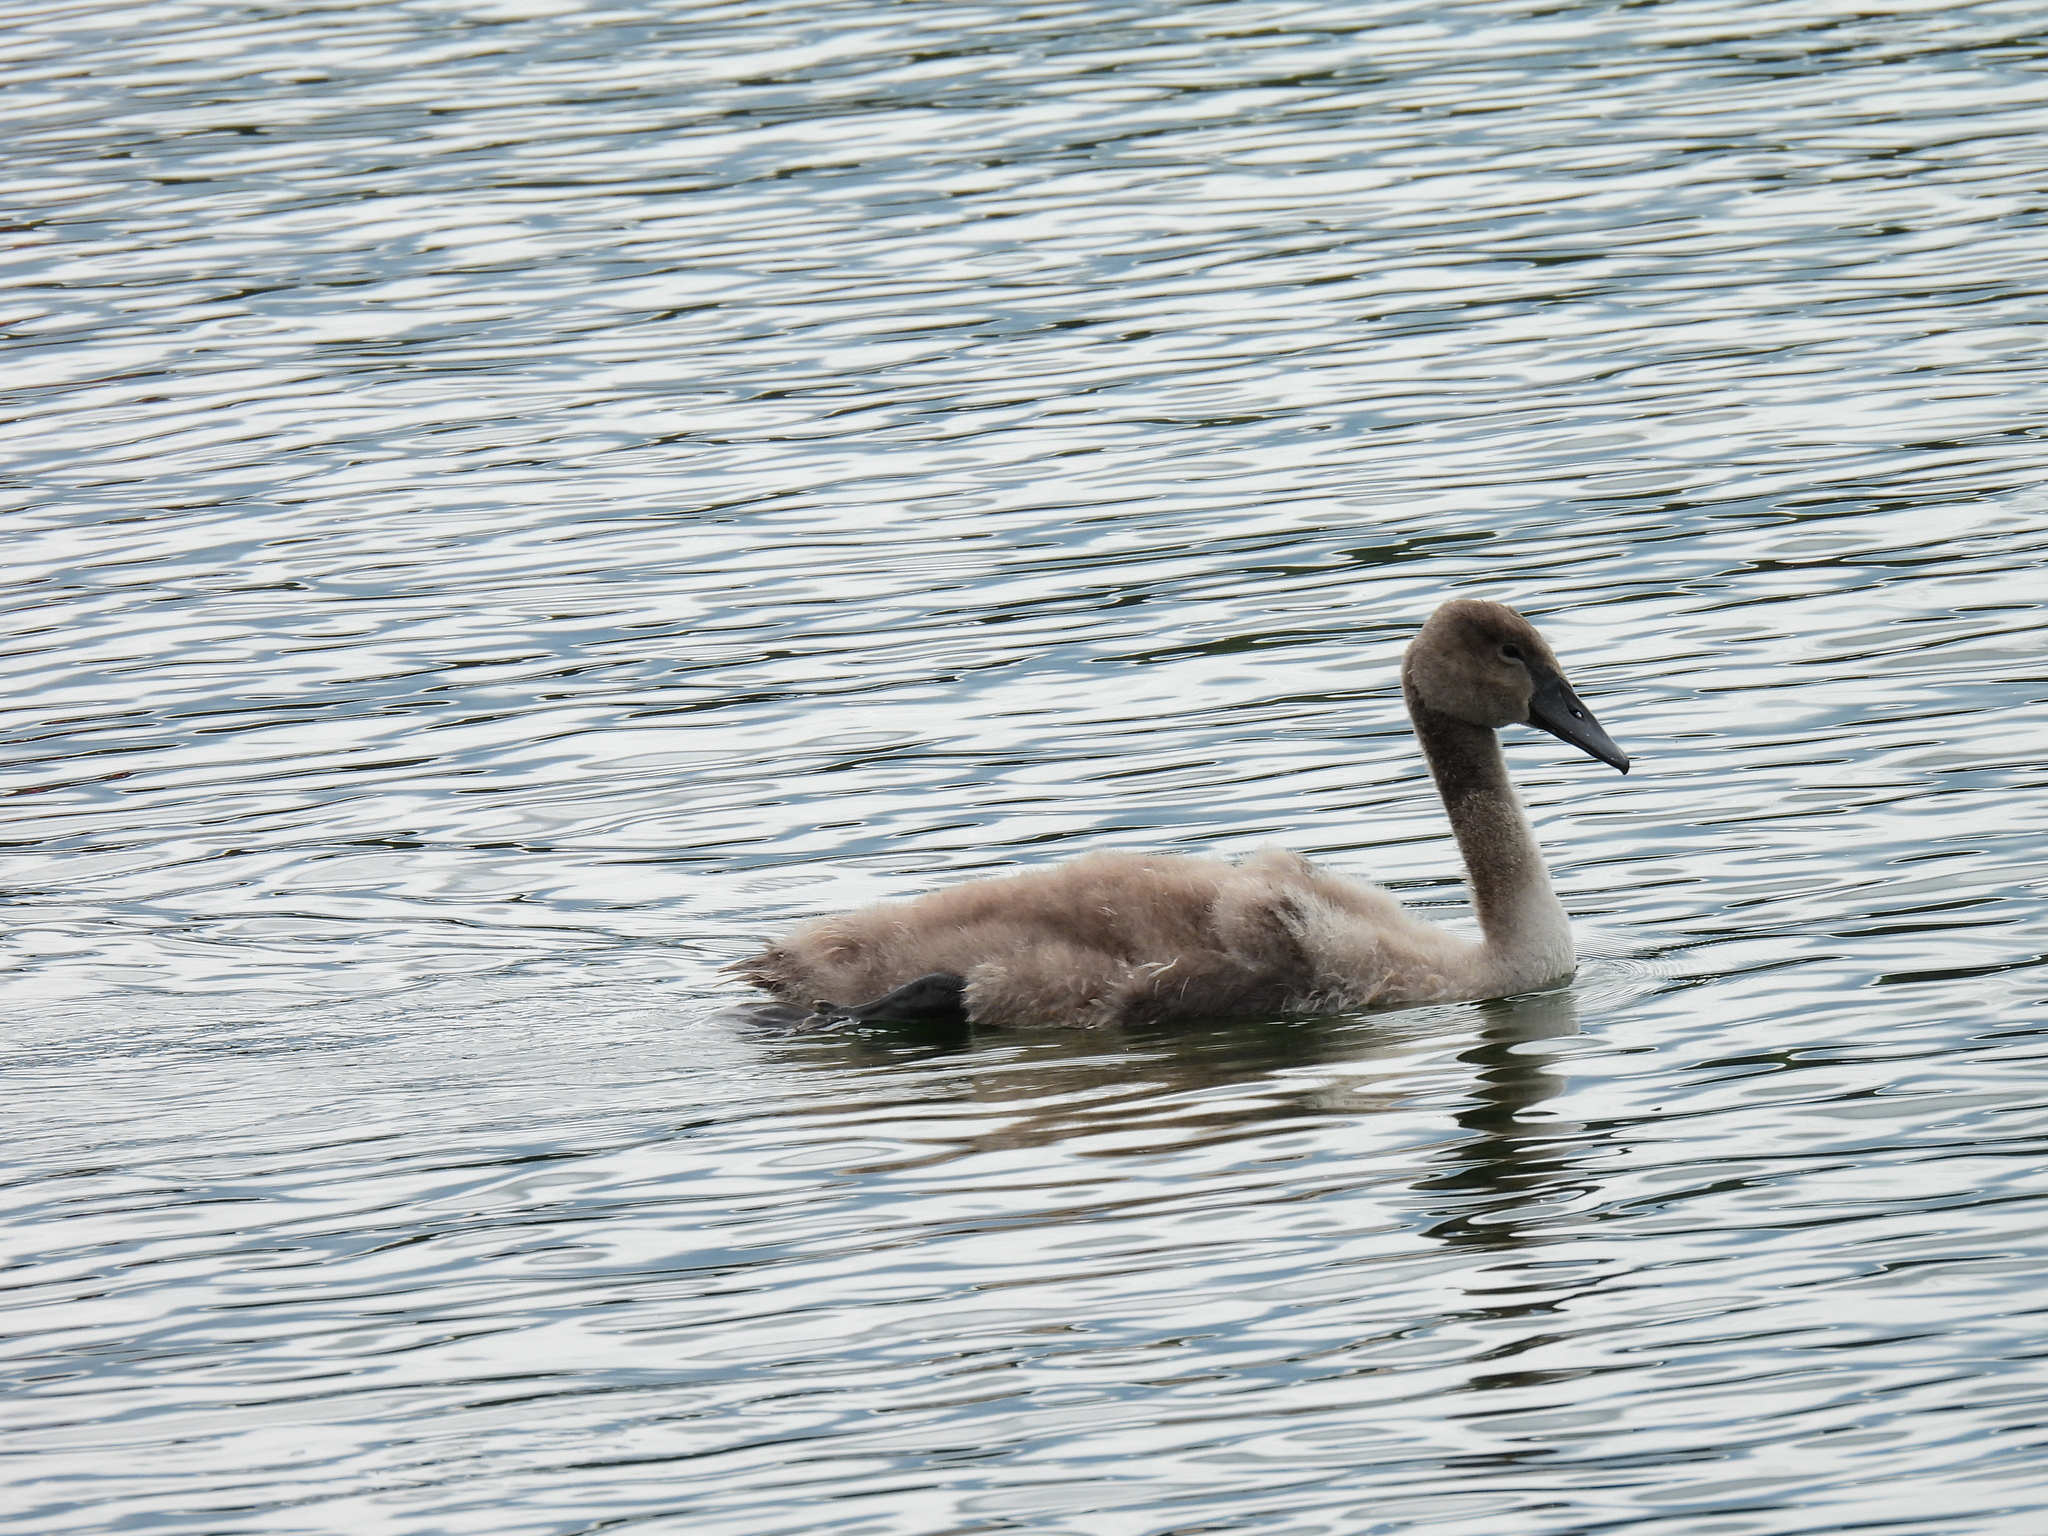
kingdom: Animalia
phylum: Chordata
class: Aves
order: Anseriformes
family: Anatidae
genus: Cygnus
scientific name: Cygnus olor
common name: Mute swan
